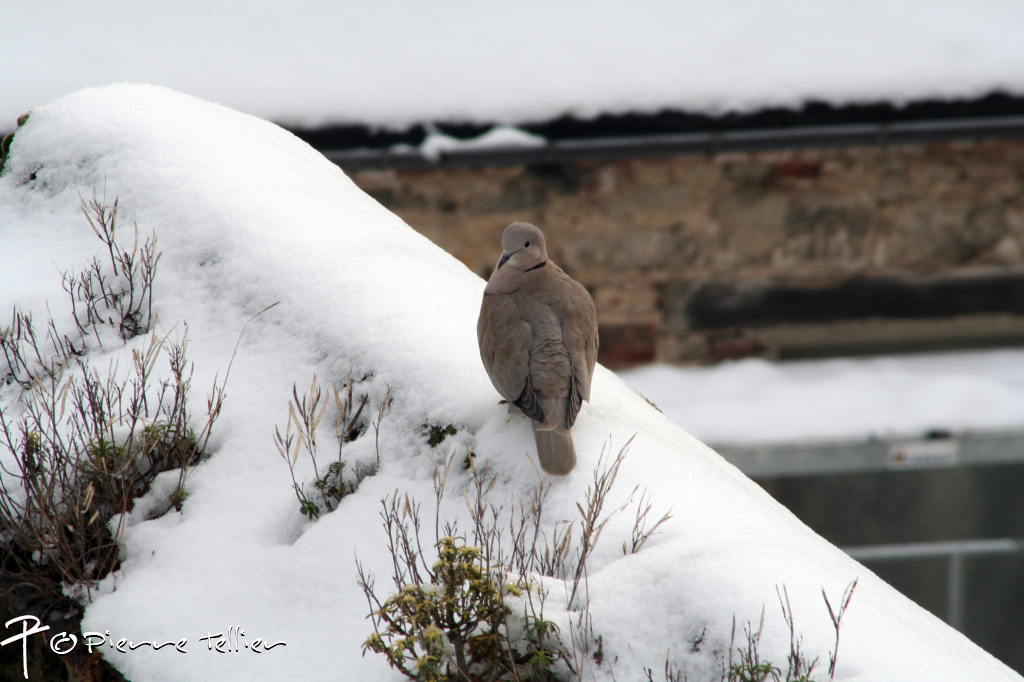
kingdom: Animalia
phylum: Chordata
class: Aves
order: Columbiformes
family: Columbidae
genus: Streptopelia
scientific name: Streptopelia decaocto
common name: Eurasian collared dove
